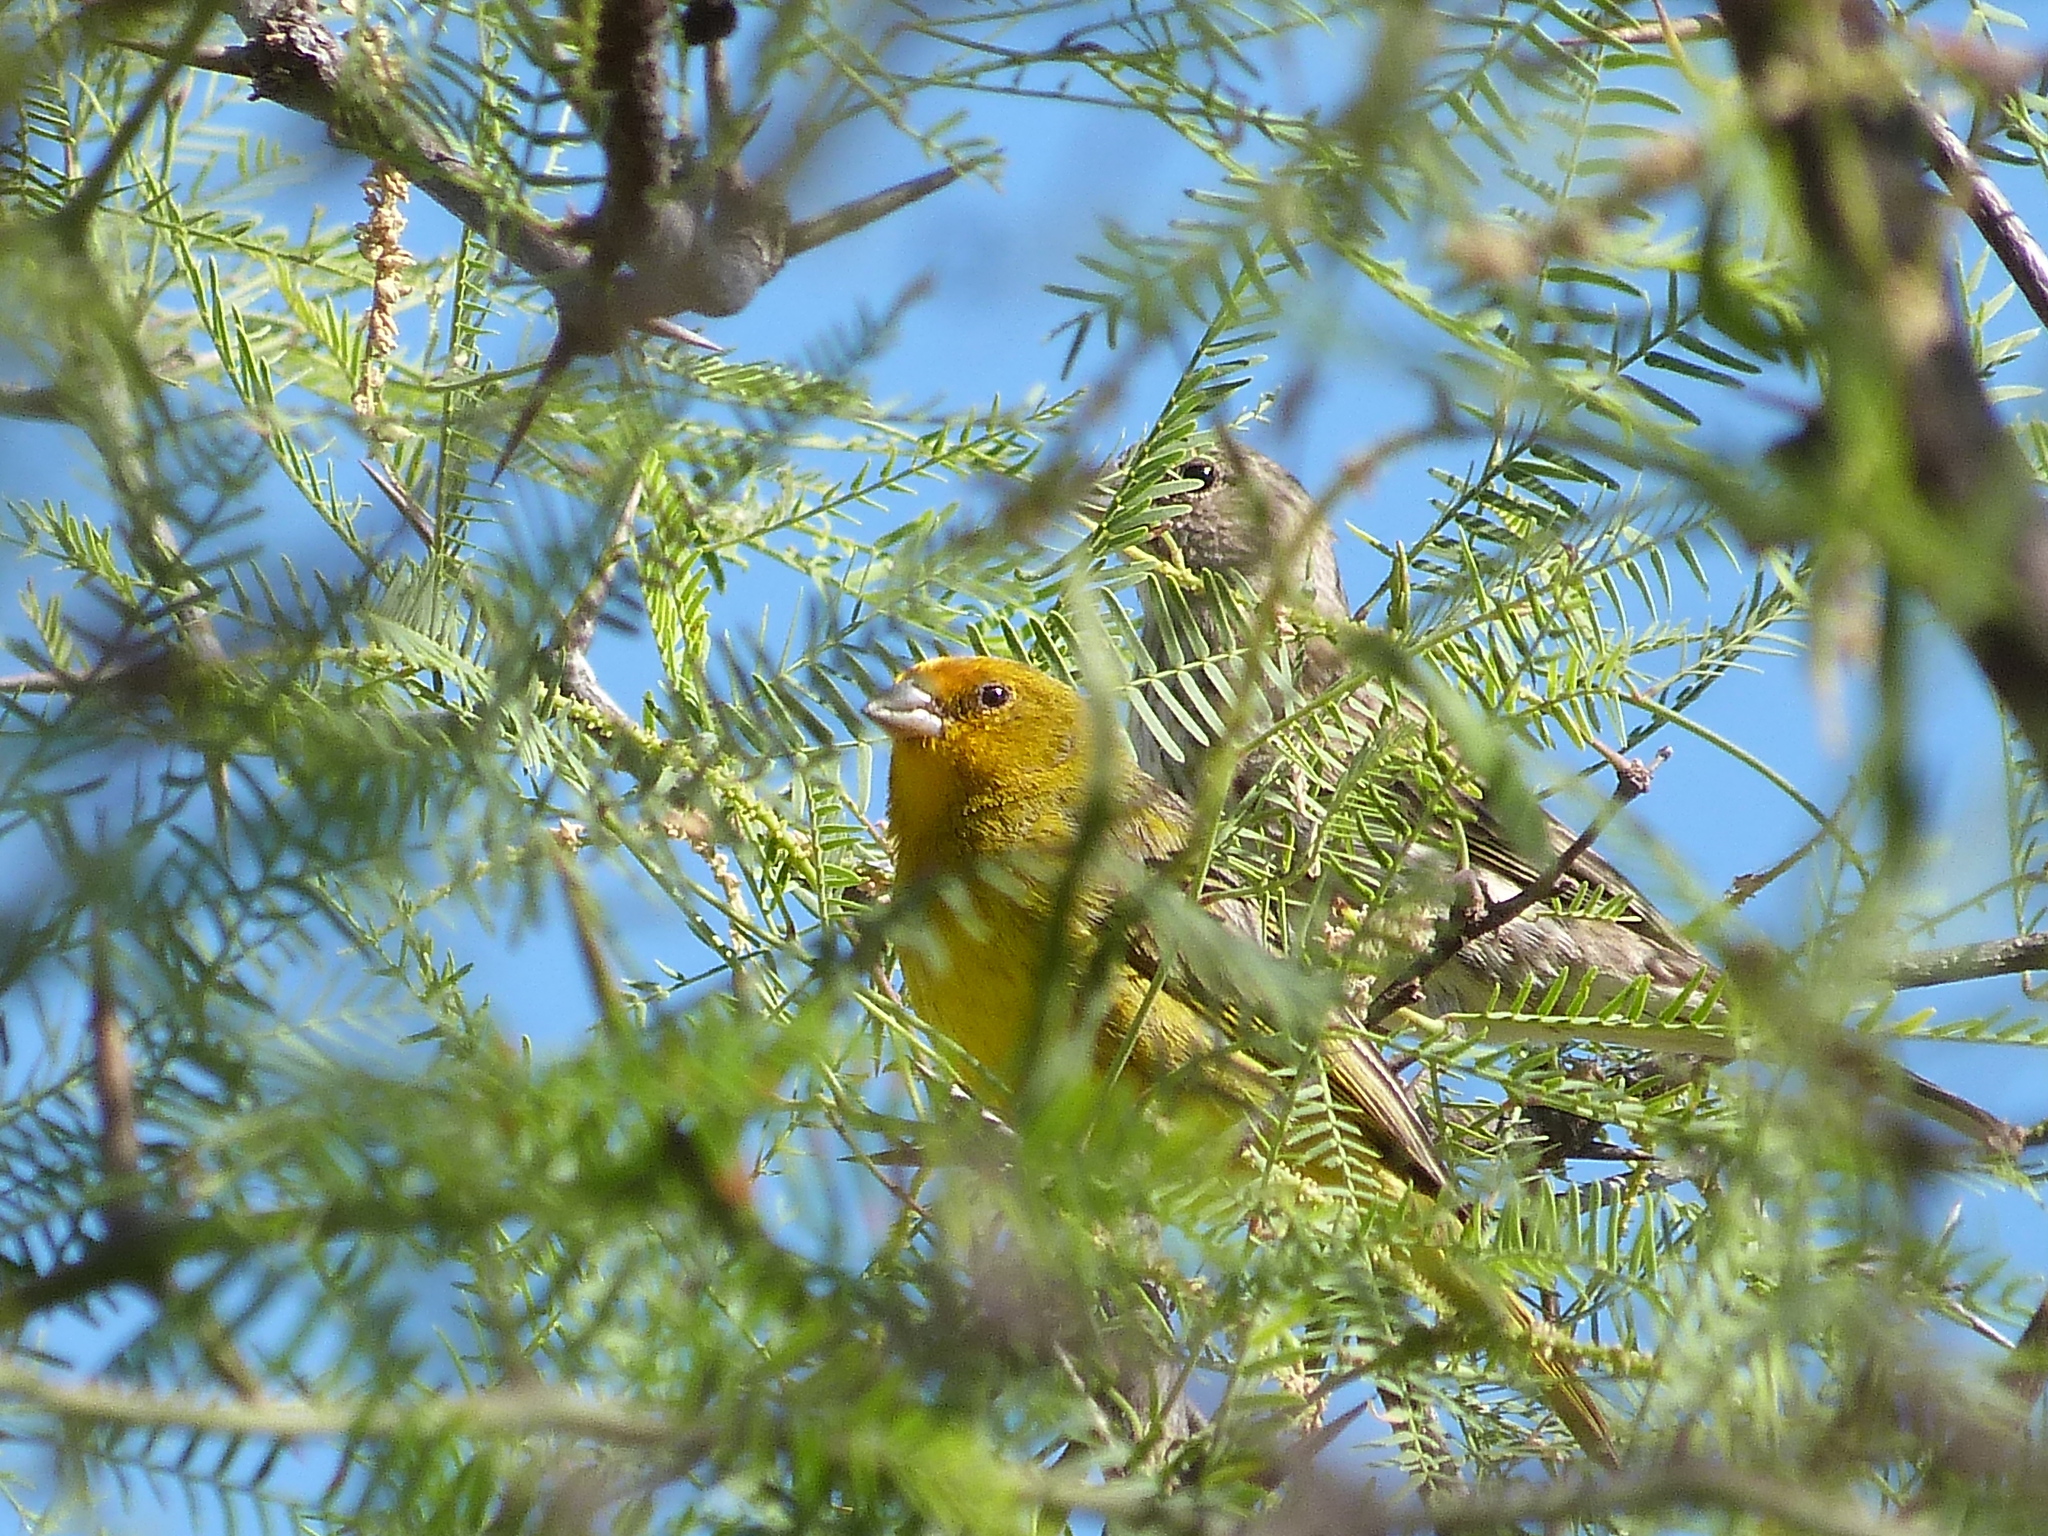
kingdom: Animalia
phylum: Chordata
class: Aves
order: Passeriformes
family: Thraupidae
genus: Sicalis
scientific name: Sicalis flaveola
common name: Saffron finch
